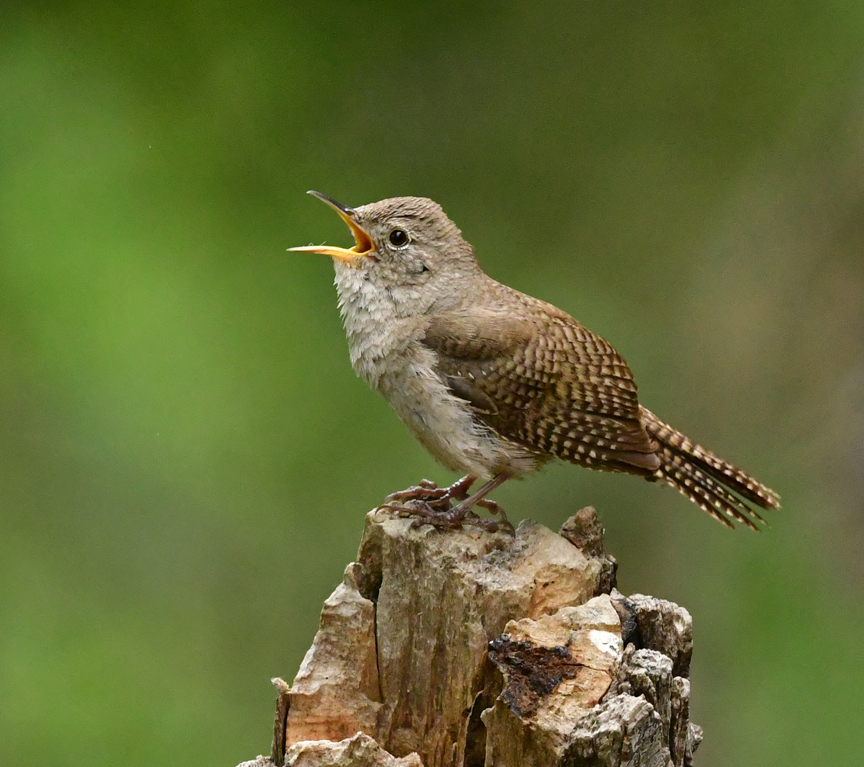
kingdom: Animalia
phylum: Chordata
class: Aves
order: Passeriformes
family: Troglodytidae
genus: Troglodytes
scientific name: Troglodytes aedon
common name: House wren
